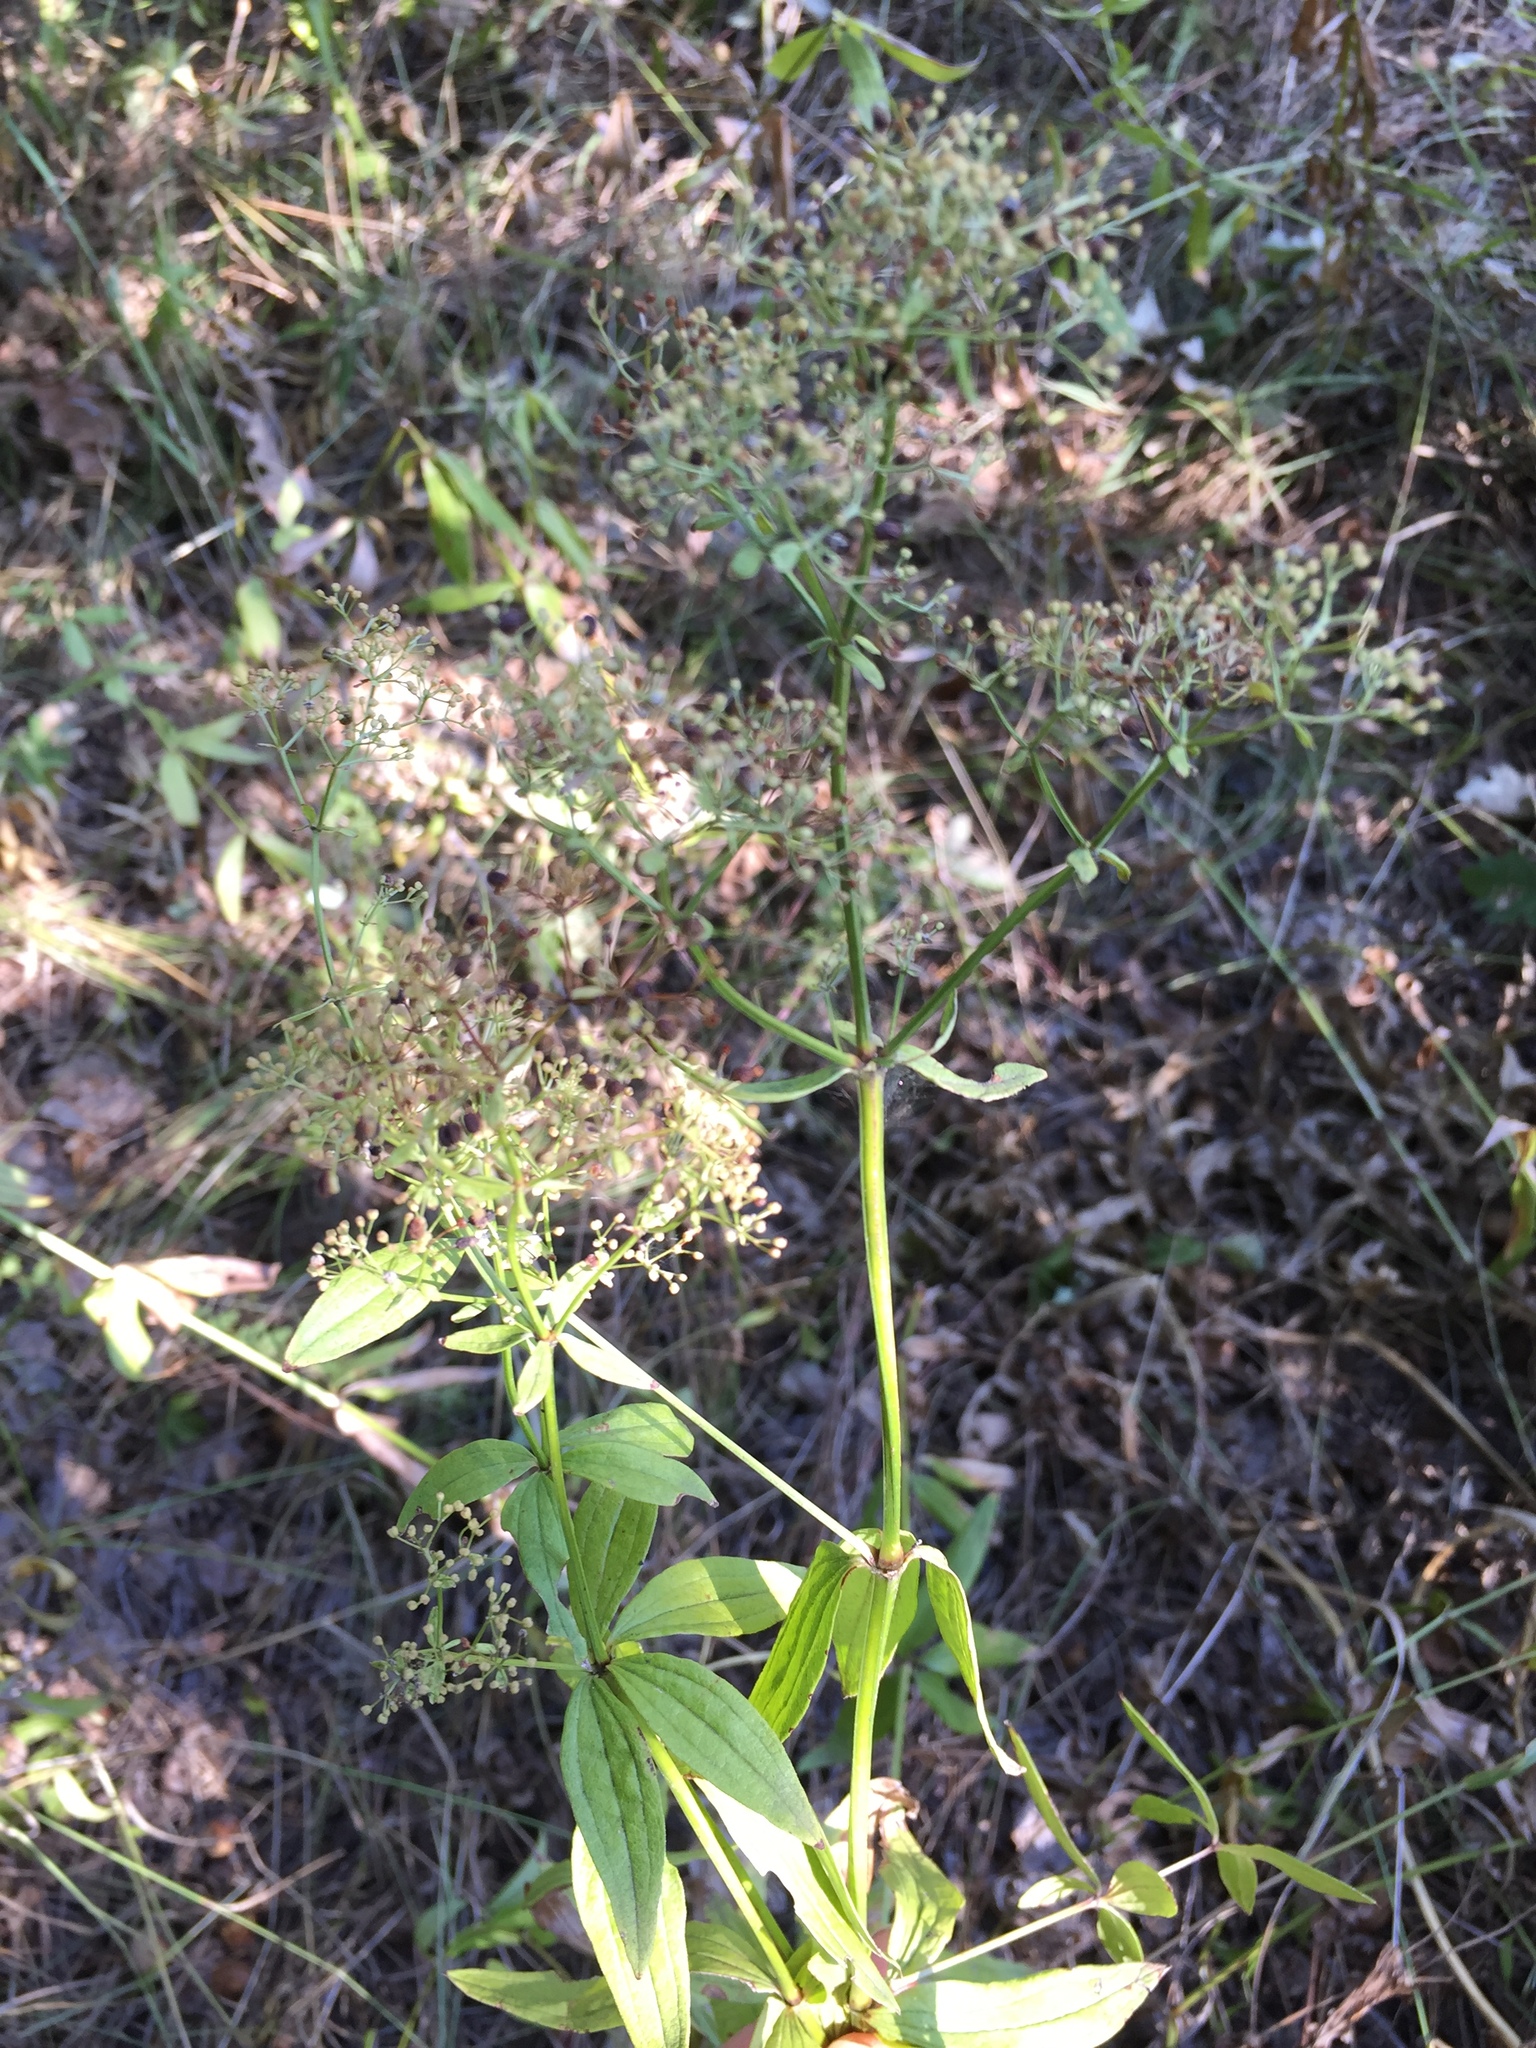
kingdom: Plantae
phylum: Tracheophyta
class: Magnoliopsida
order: Gentianales
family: Rubiaceae
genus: Galium
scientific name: Galium rubioides
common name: European bedstraw
